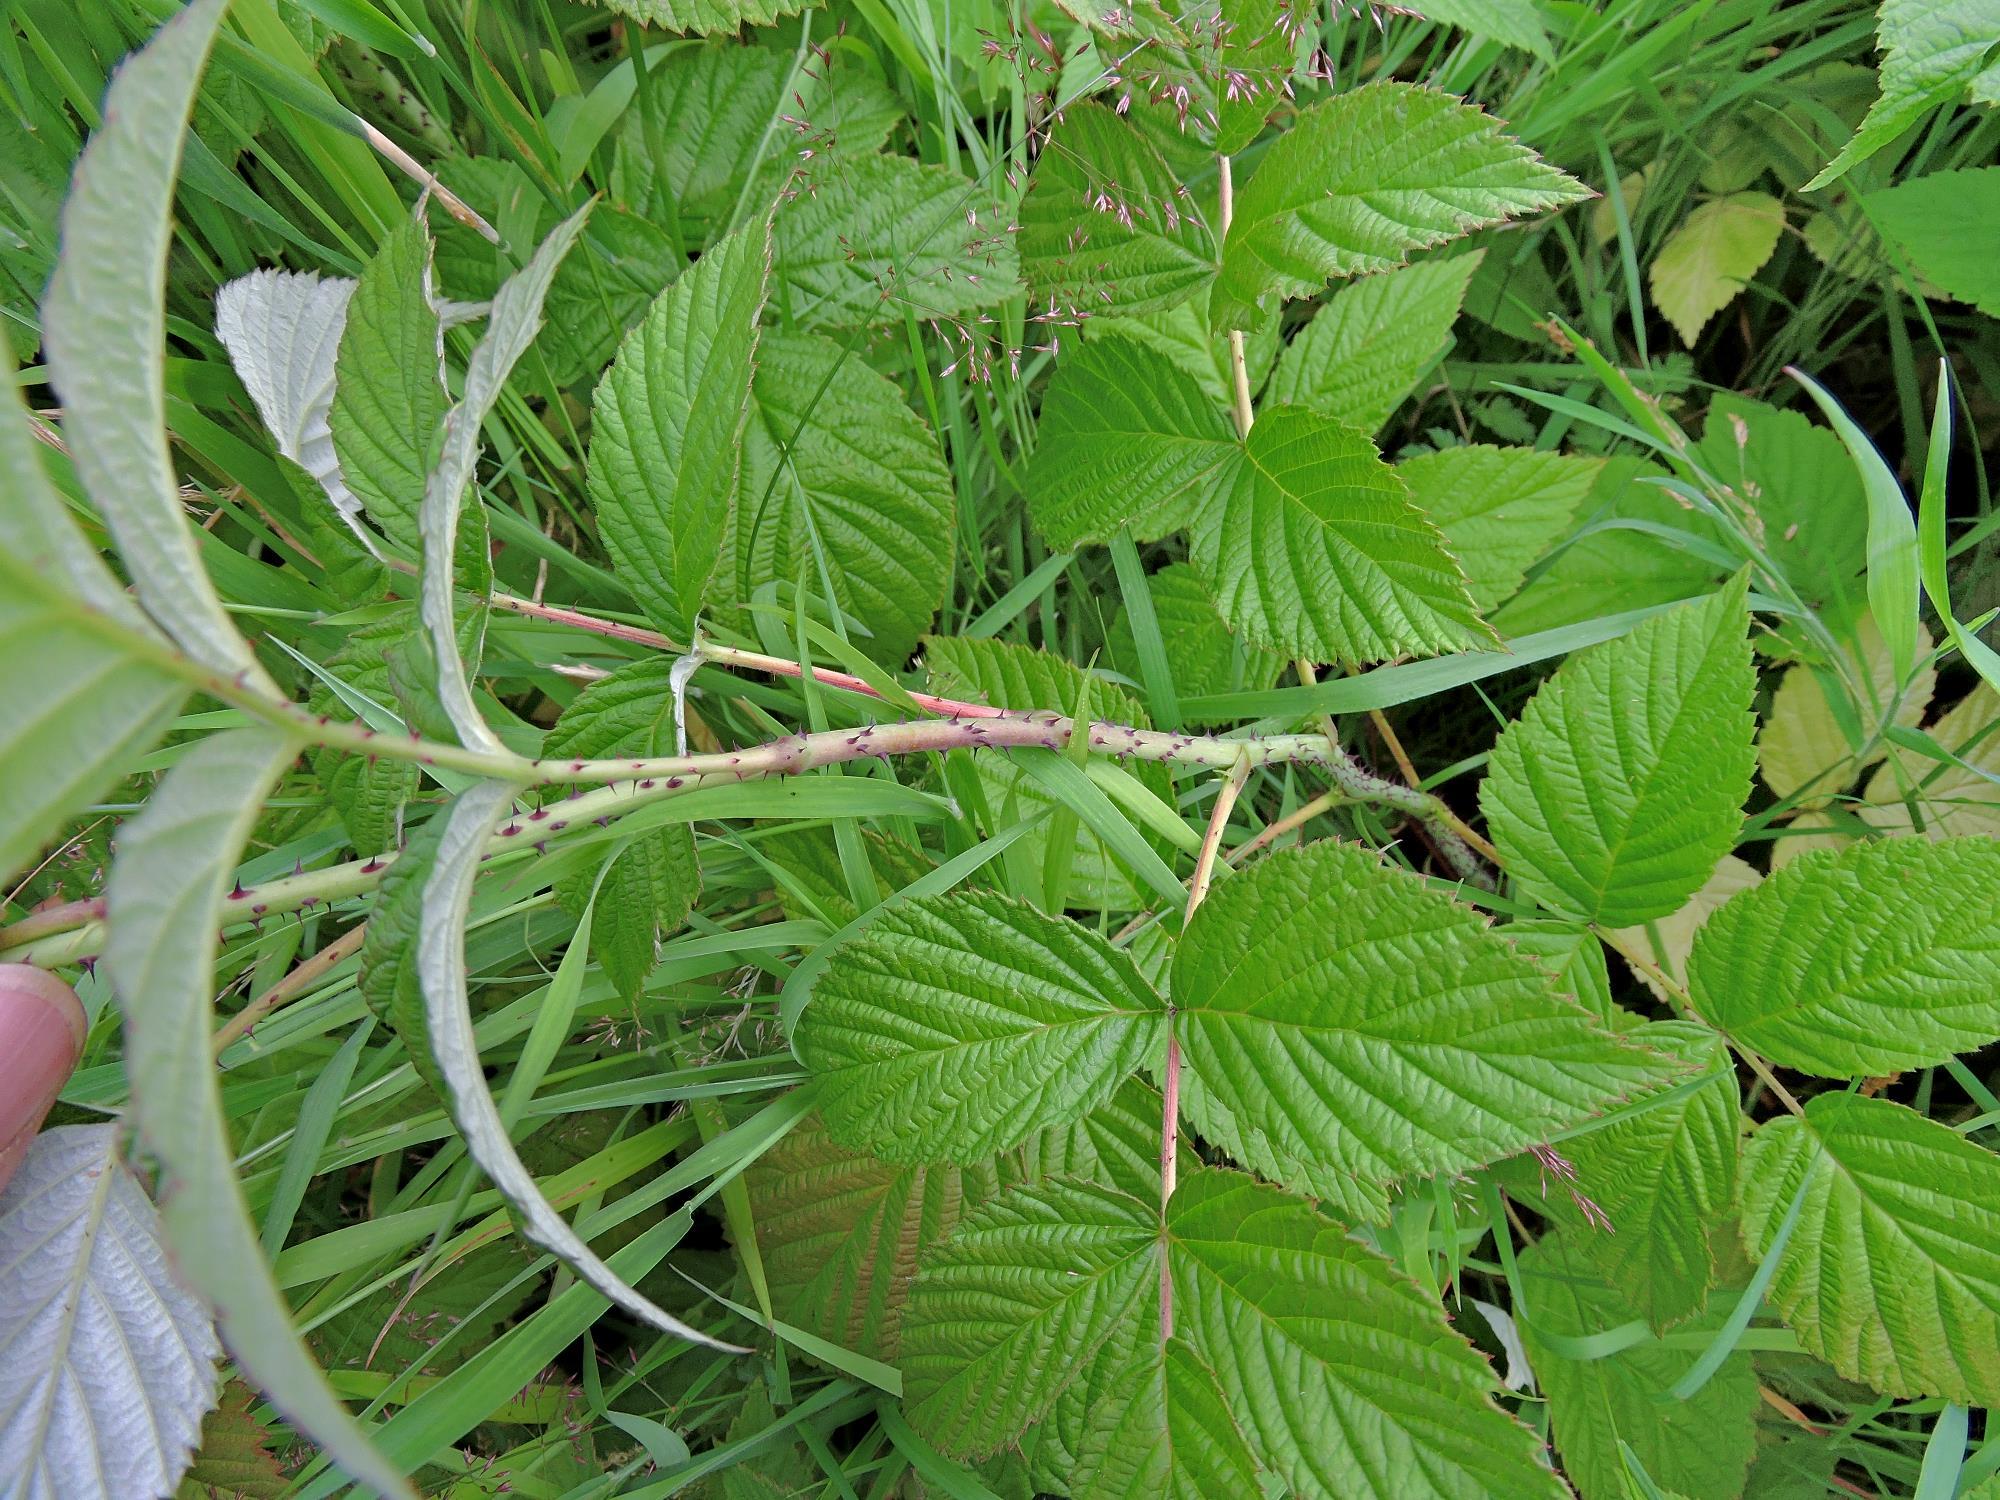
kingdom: Plantae
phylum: Tracheophyta
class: Magnoliopsida
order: Rosales
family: Rosaceae
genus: Rubus
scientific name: Rubus idaeus
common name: Raspberry
